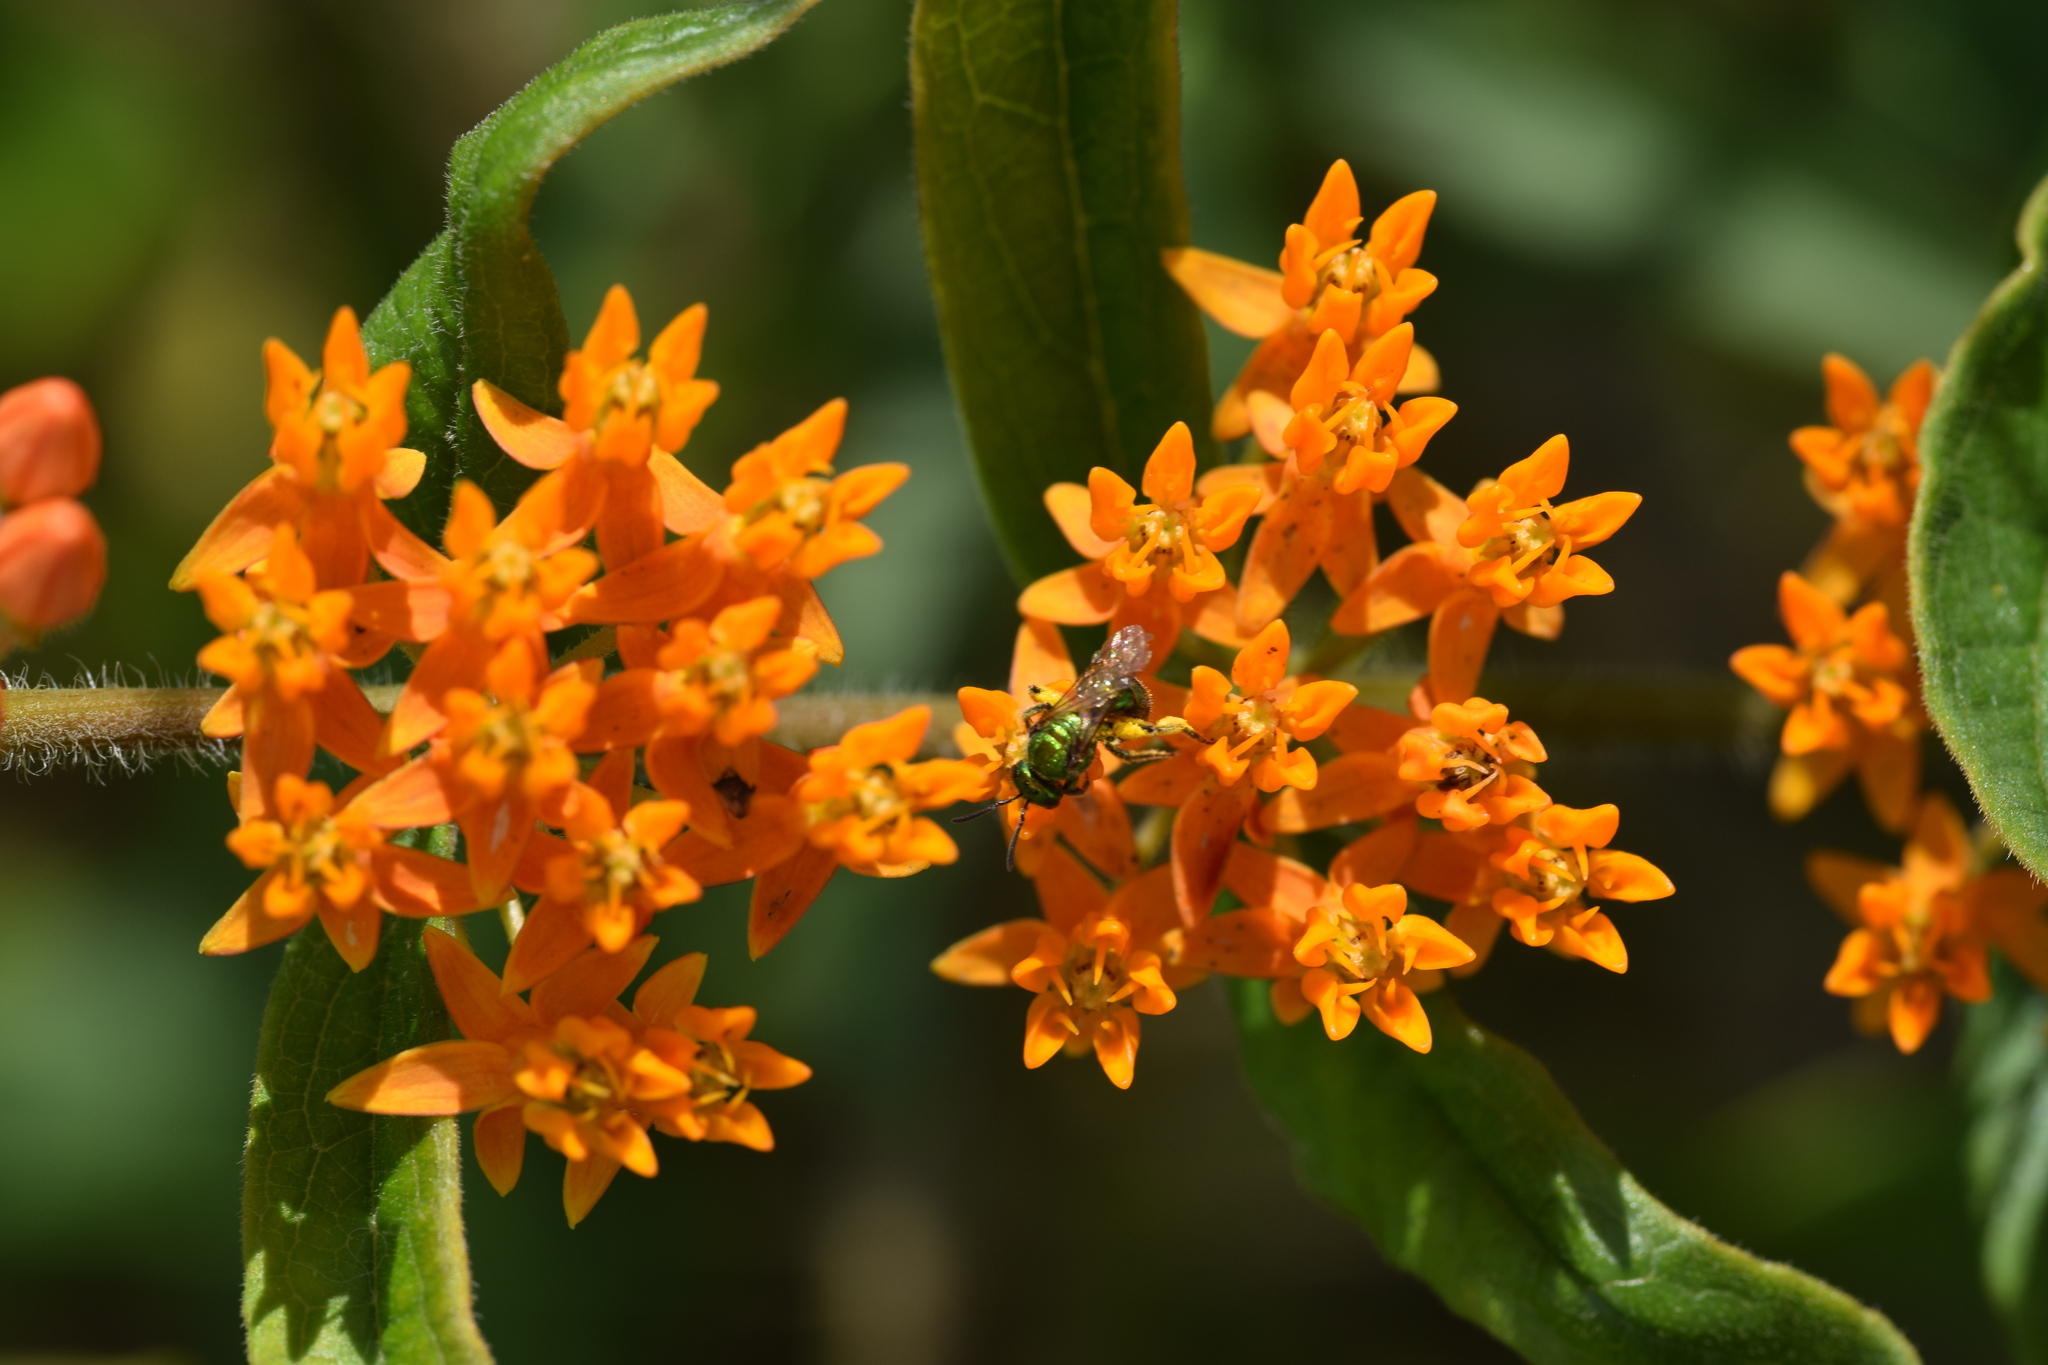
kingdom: Plantae
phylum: Tracheophyta
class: Magnoliopsida
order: Gentianales
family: Apocynaceae
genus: Asclepias
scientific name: Asclepias tuberosa
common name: Butterfly milkweed
